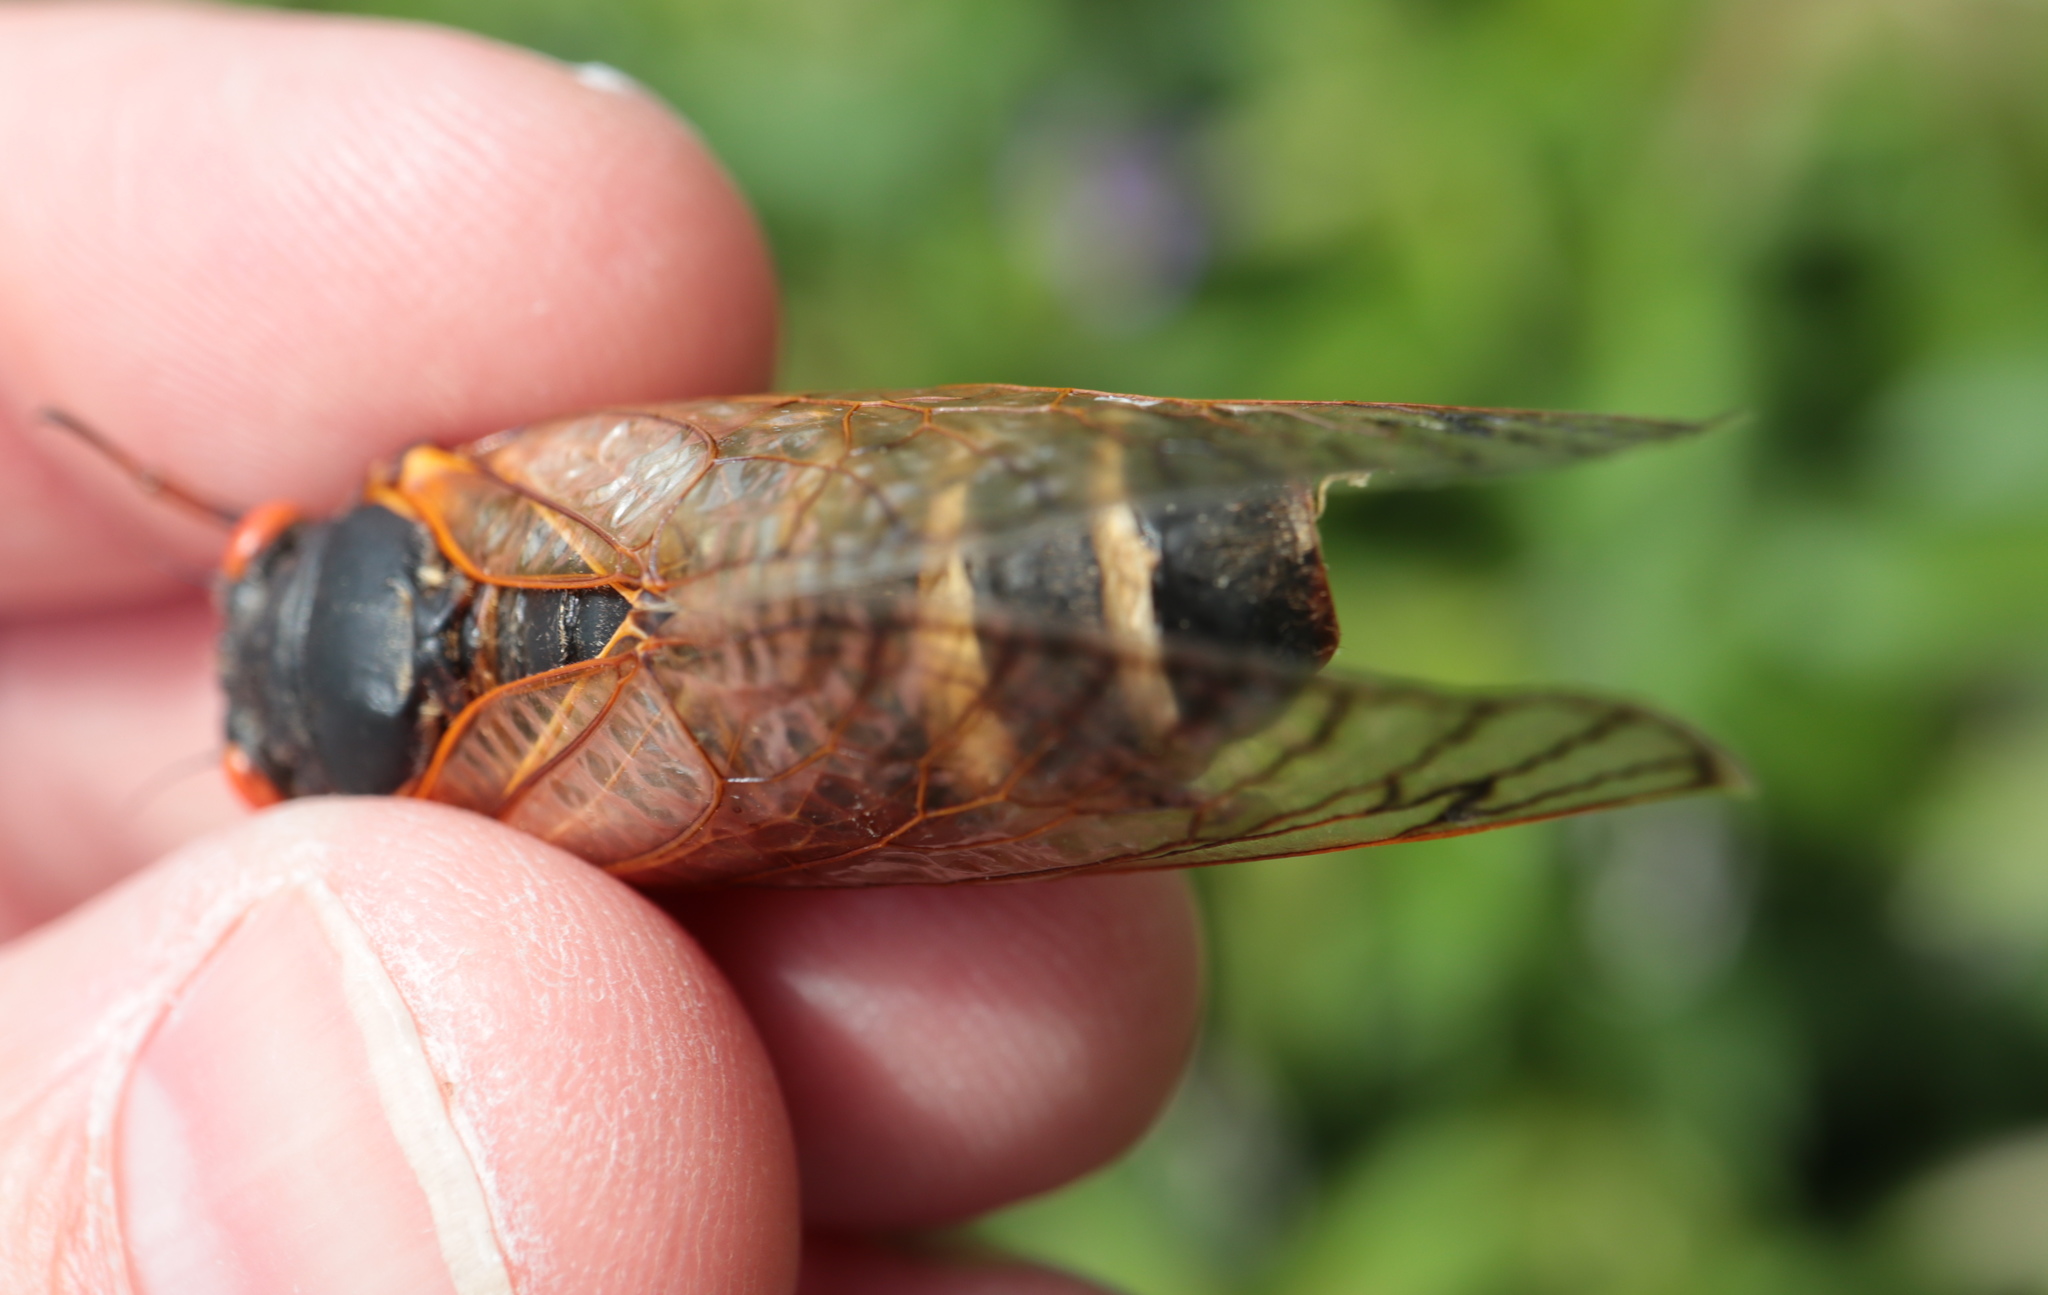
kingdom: Fungi
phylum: Entomophthoromycota
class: Entomophthoromycetes
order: Entomophthorales
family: Entomophthoraceae
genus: Massospora
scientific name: Massospora cicadina
